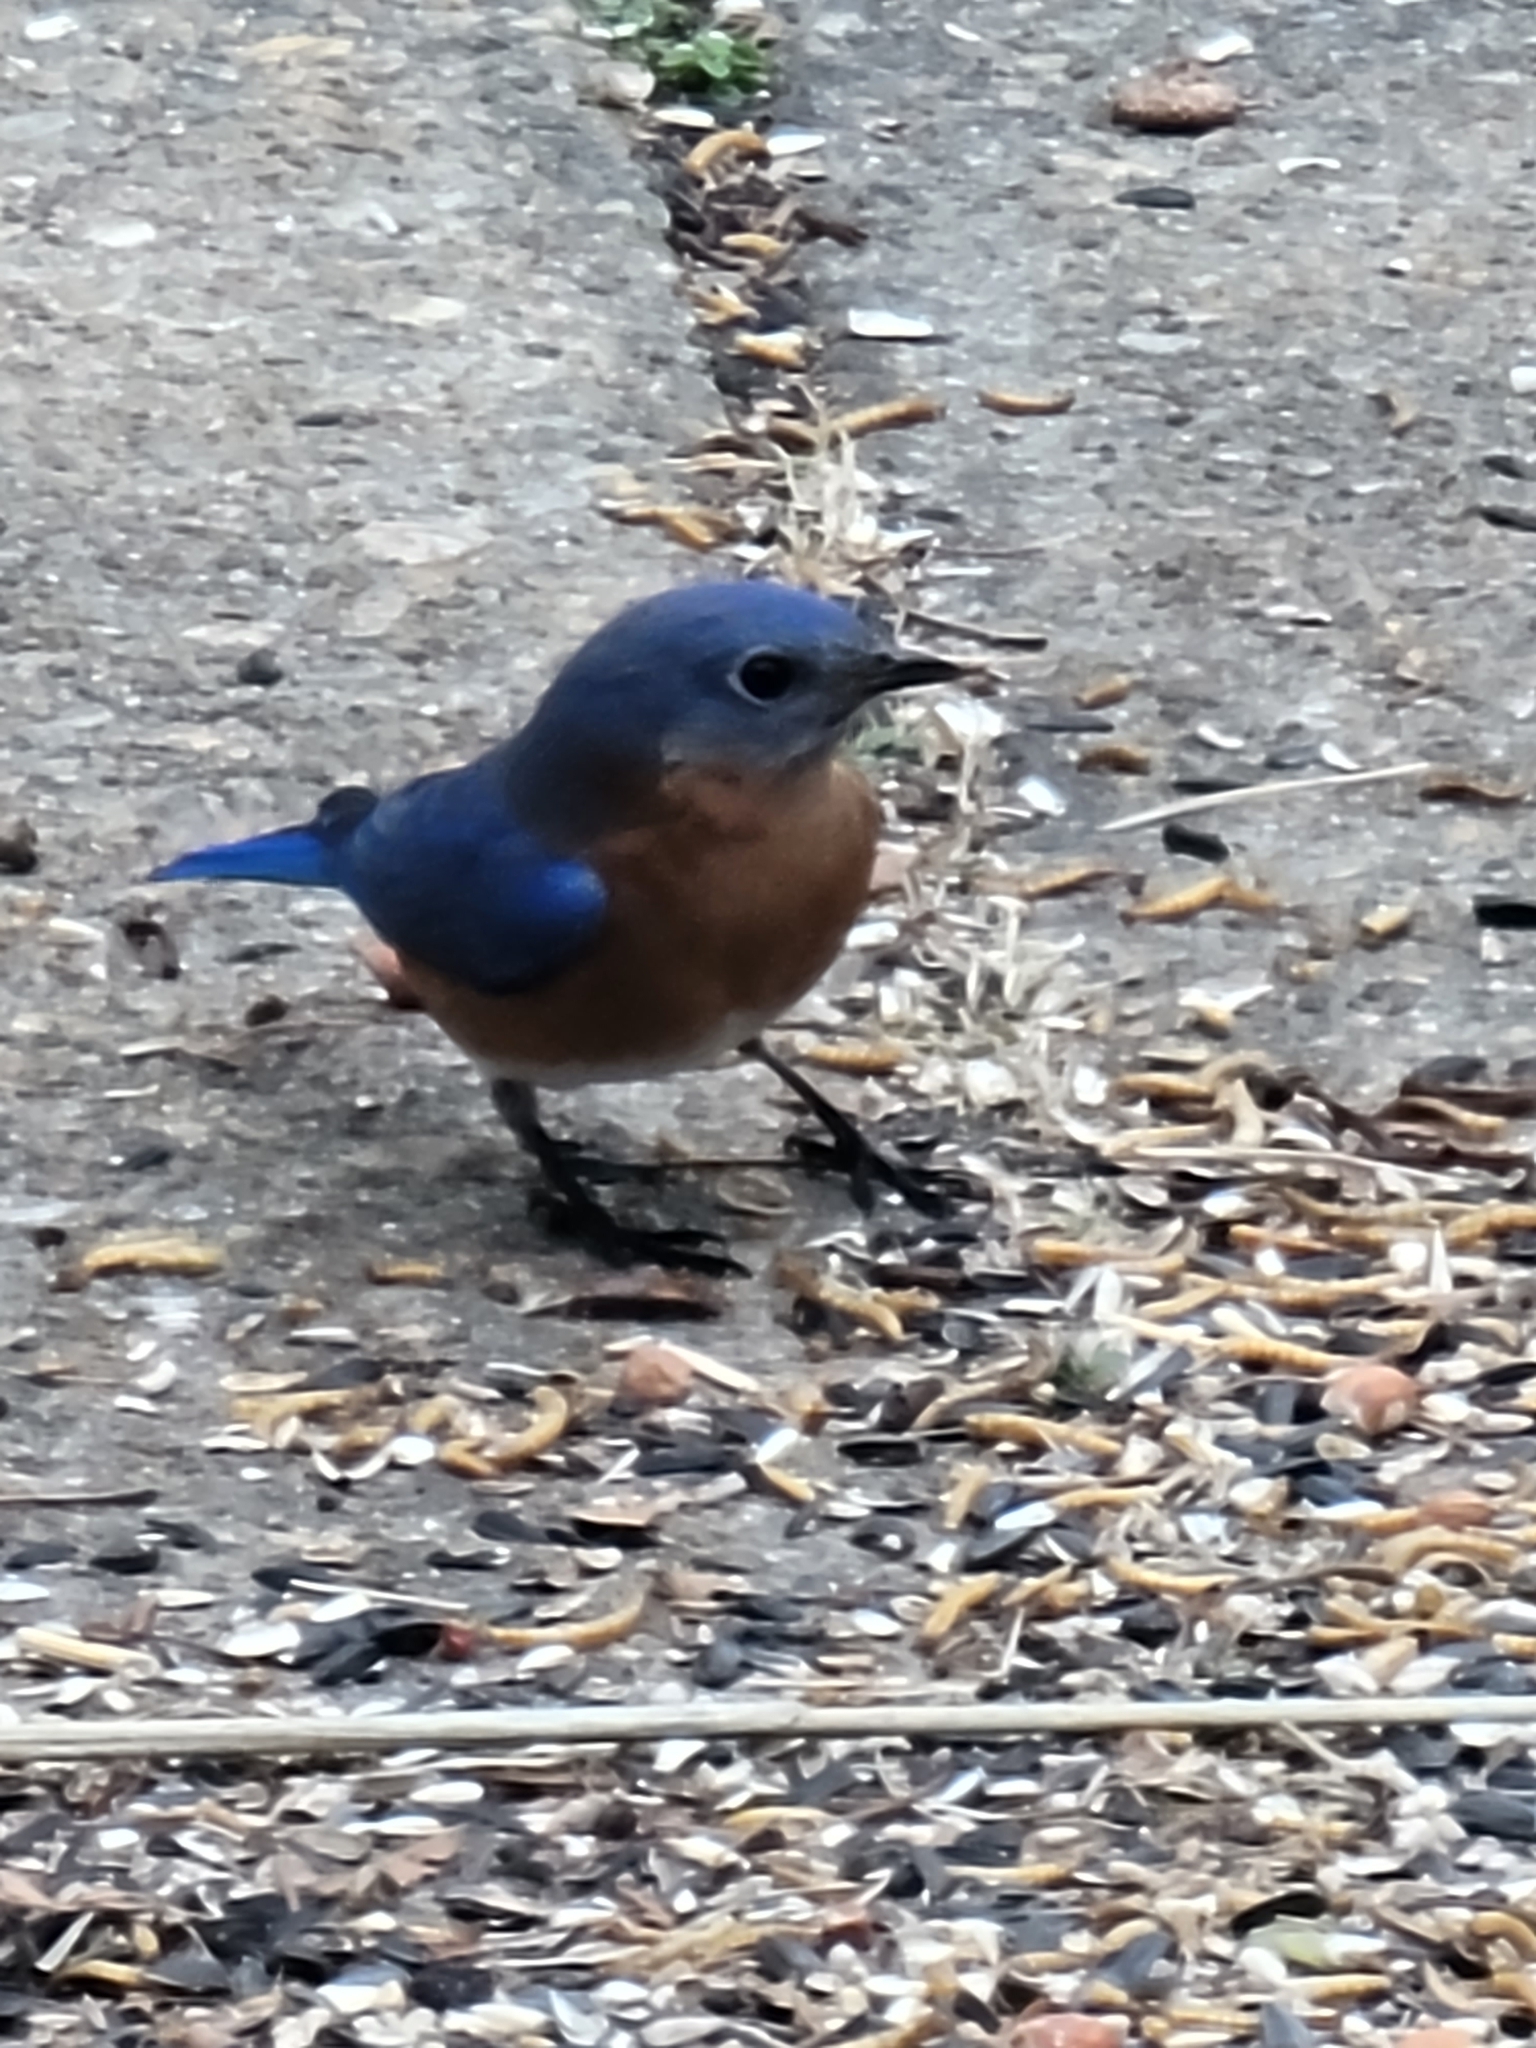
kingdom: Animalia
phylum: Chordata
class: Aves
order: Passeriformes
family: Turdidae
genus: Sialia
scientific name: Sialia sialis
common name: Eastern bluebird
